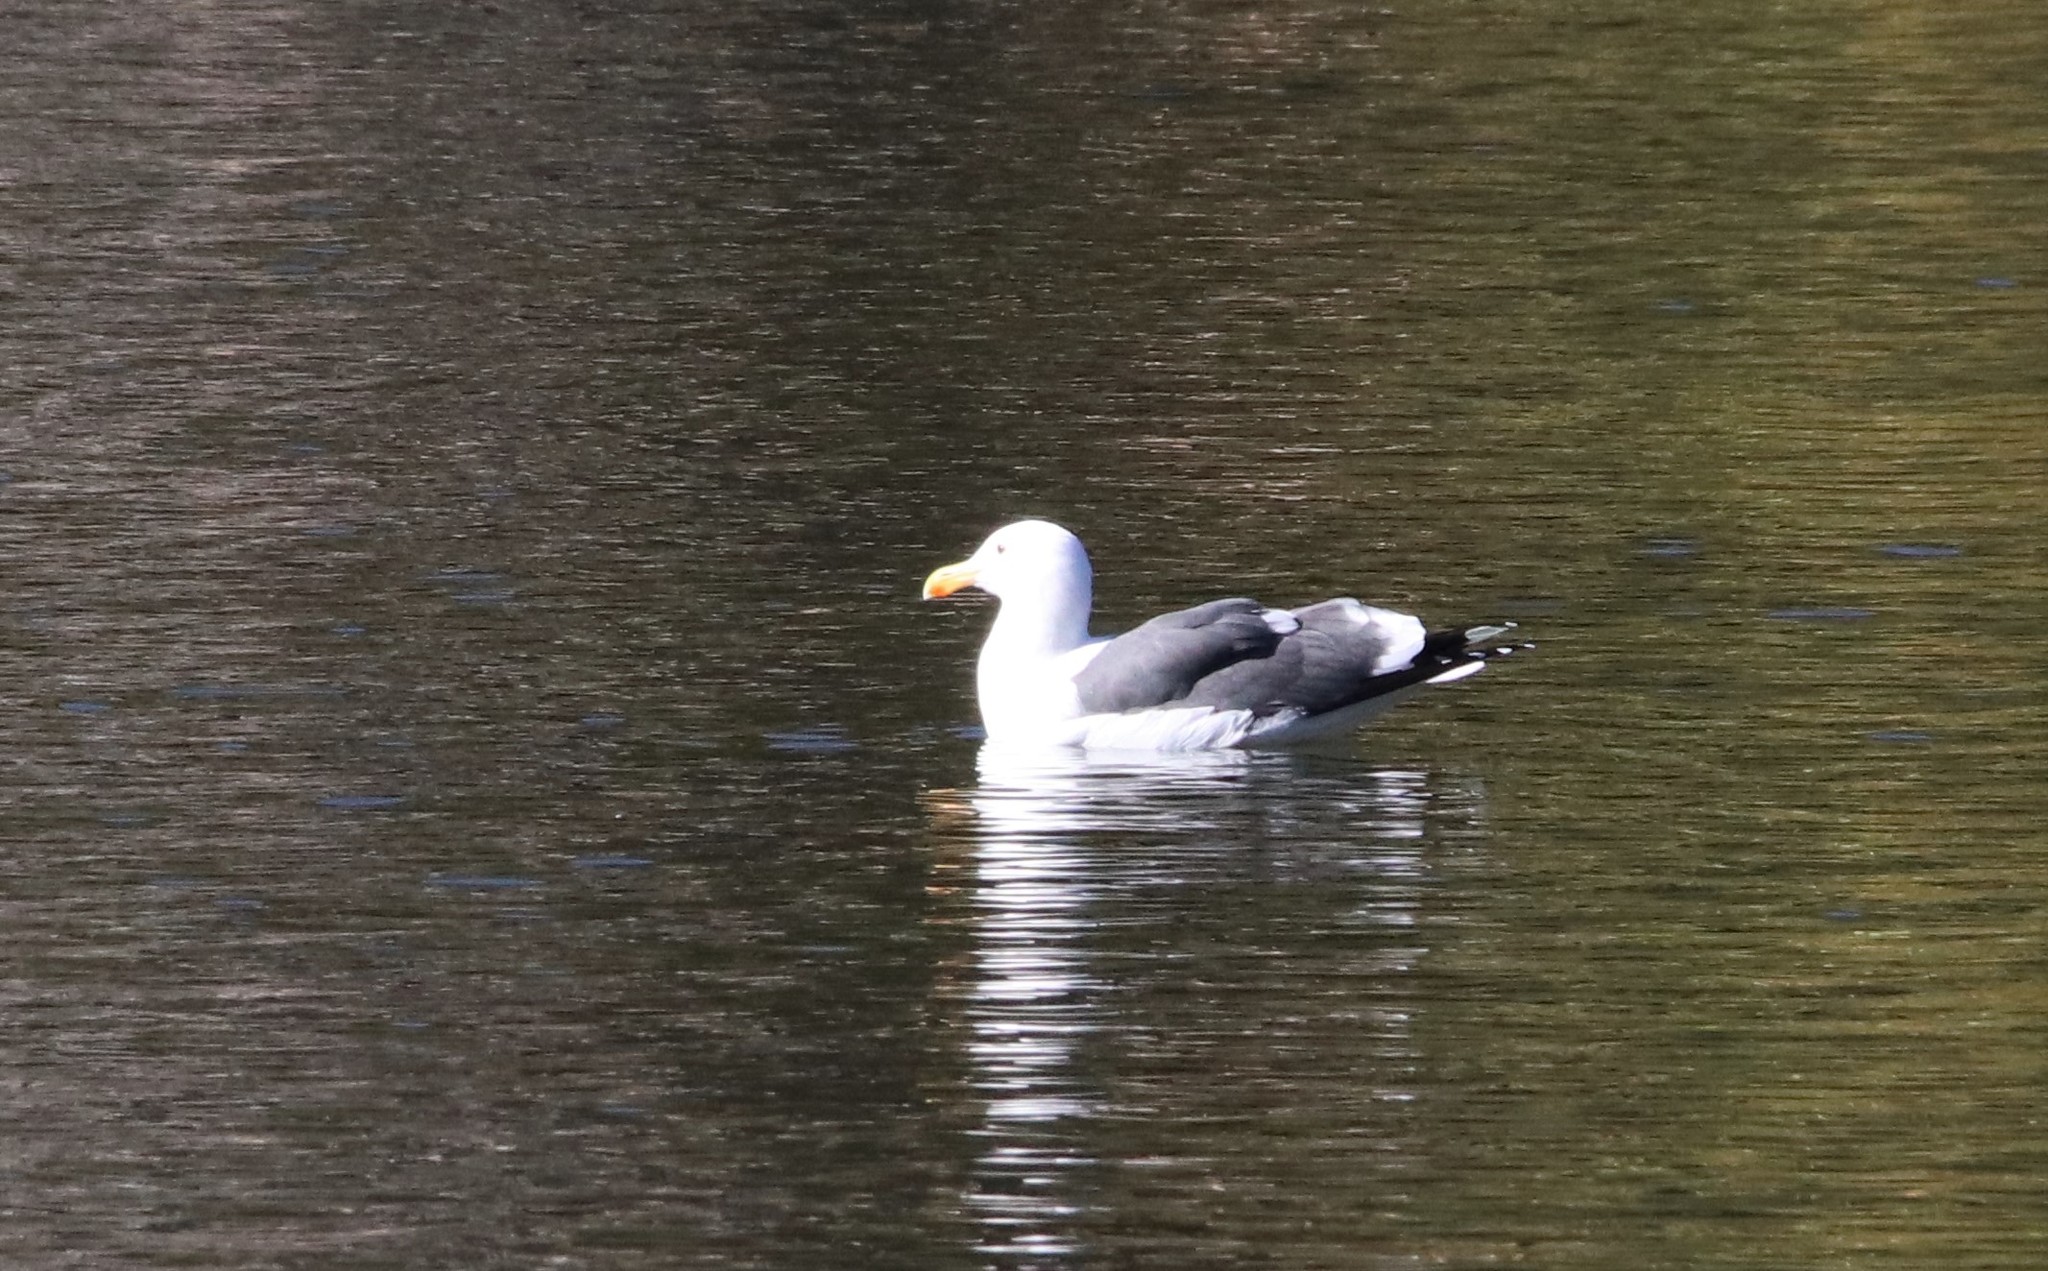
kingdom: Animalia
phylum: Chordata
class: Aves
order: Charadriiformes
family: Laridae
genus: Larus
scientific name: Larus occidentalis
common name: Western gull
